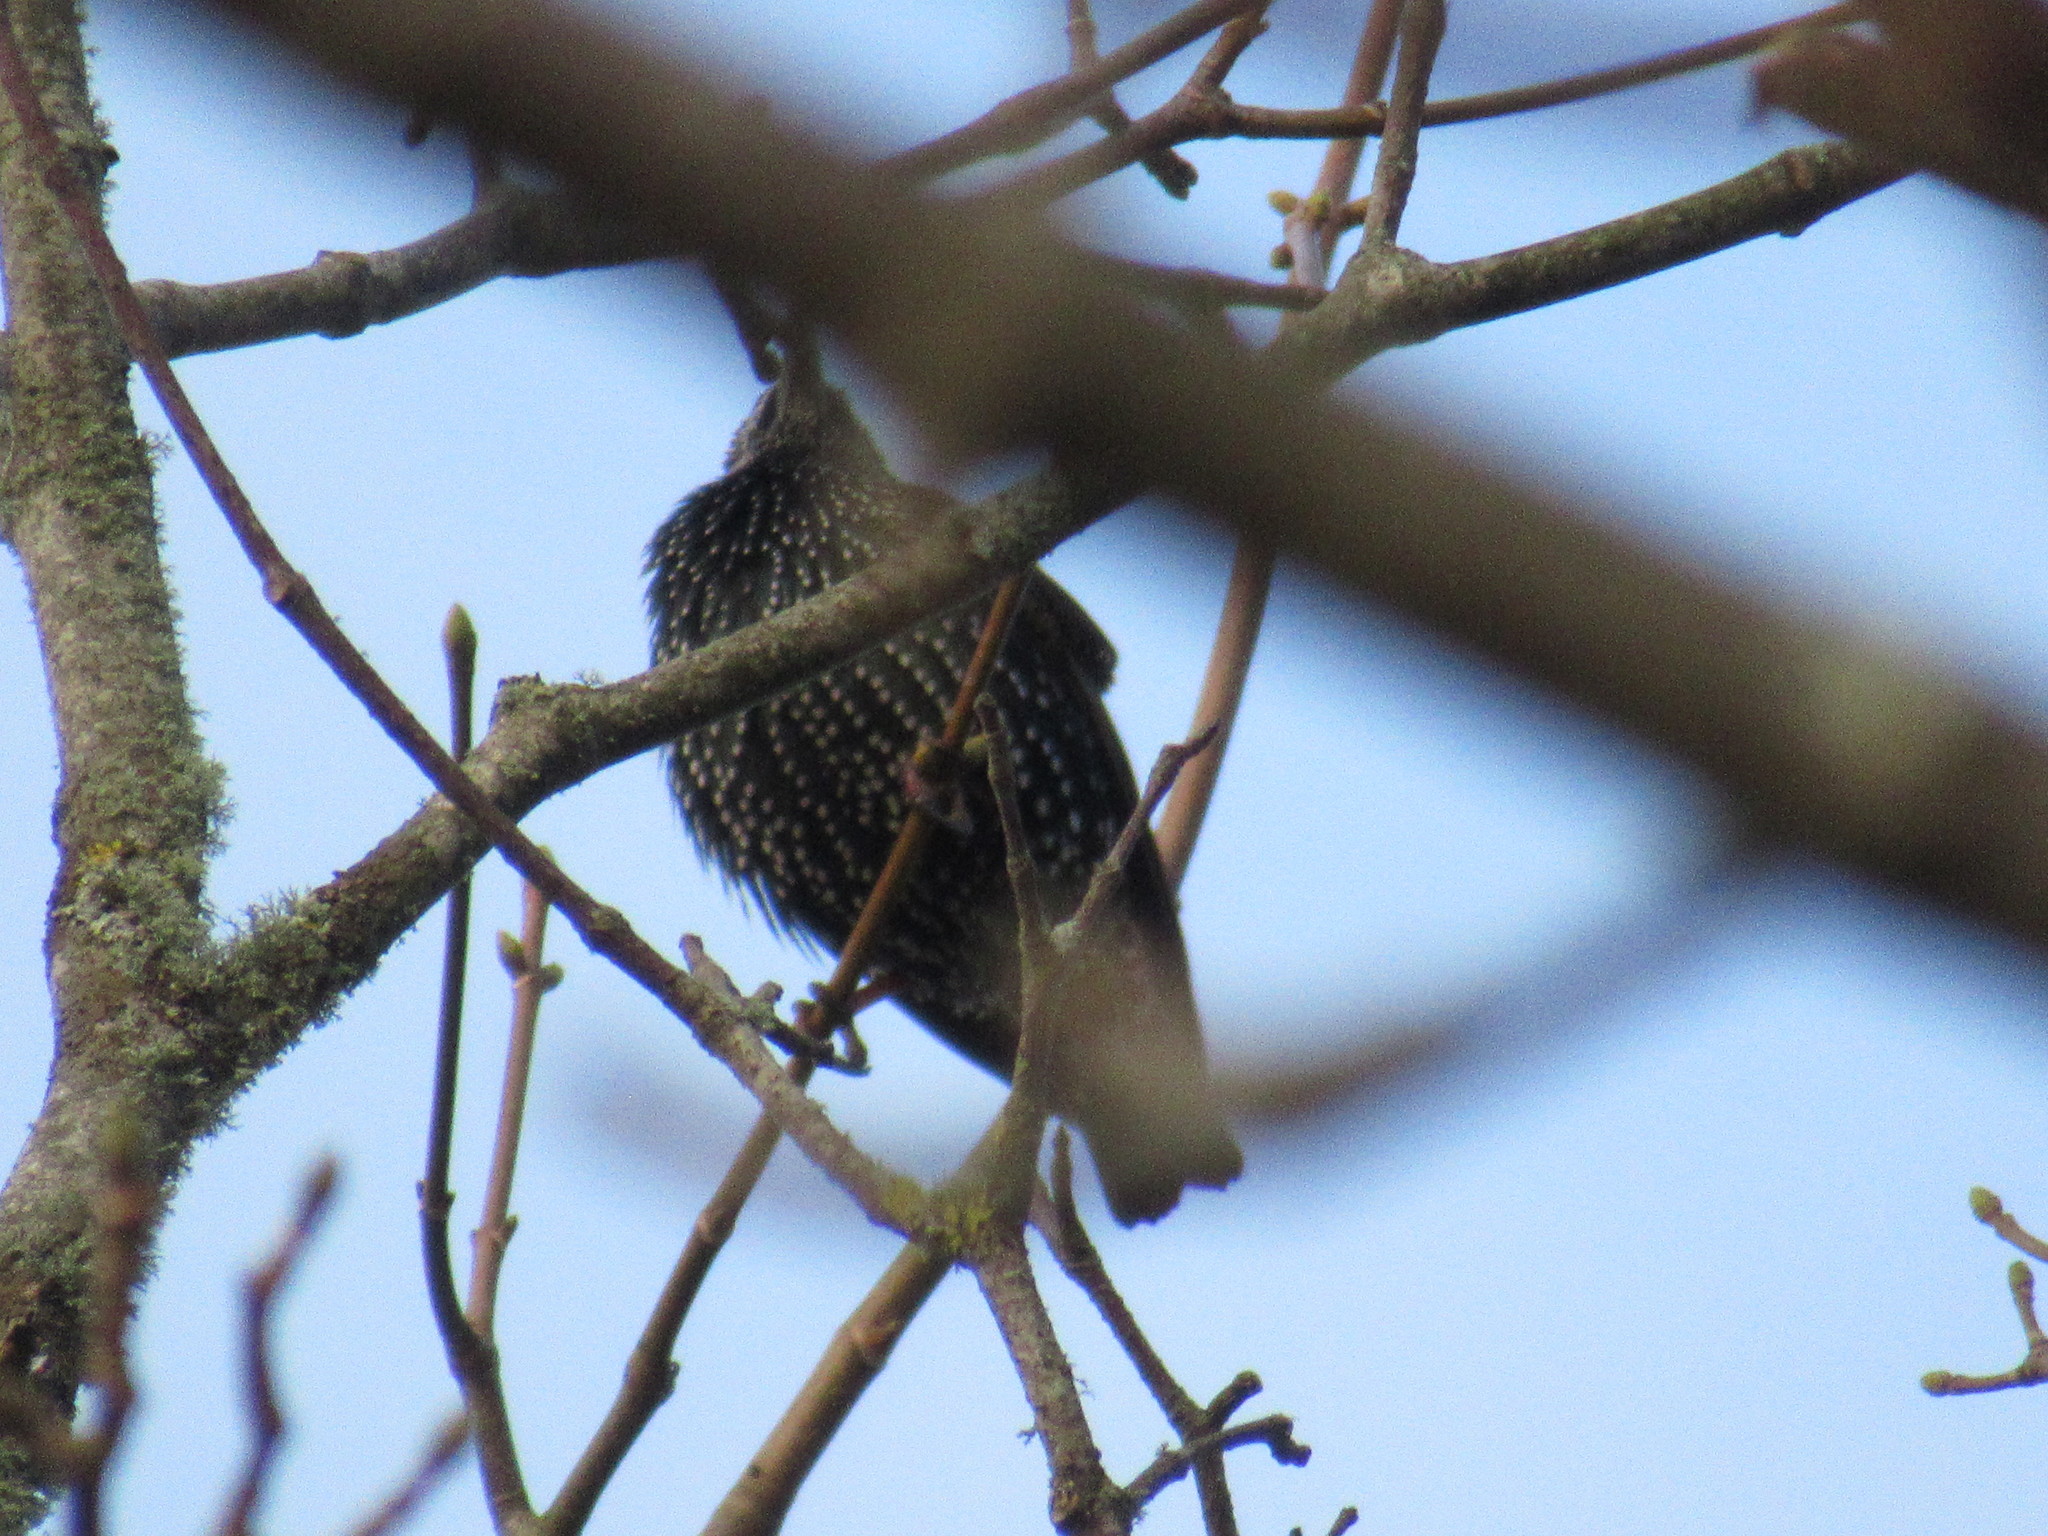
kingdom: Animalia
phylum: Chordata
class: Aves
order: Passeriformes
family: Sturnidae
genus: Sturnus
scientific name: Sturnus vulgaris
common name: Common starling
